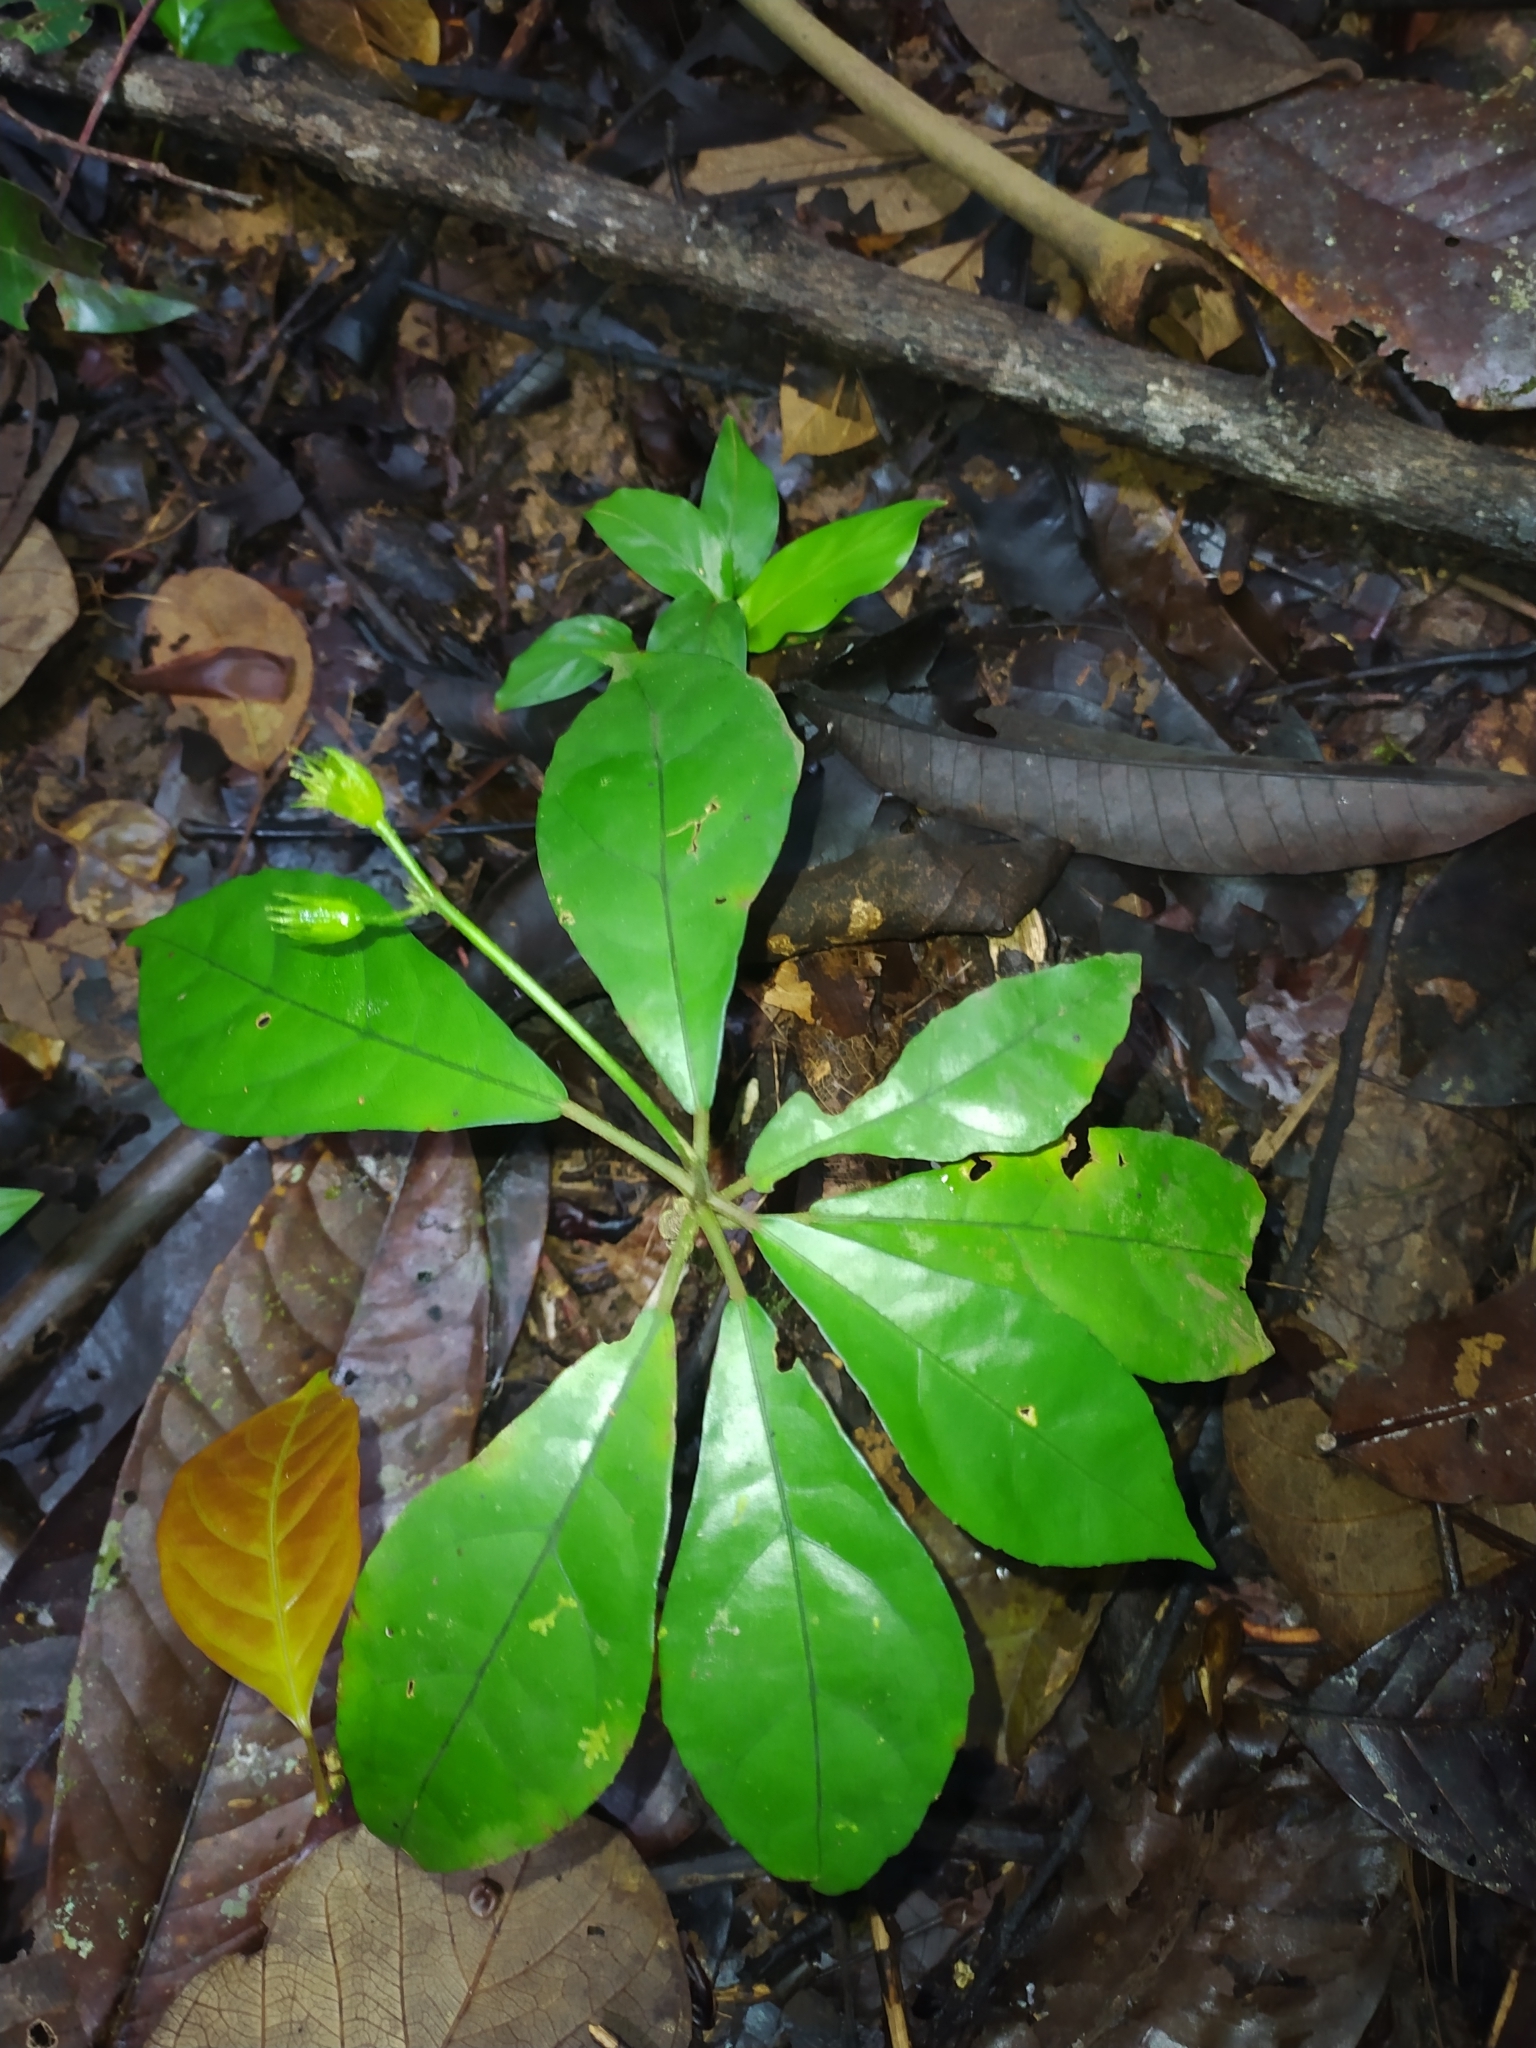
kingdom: Plantae
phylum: Tracheophyta
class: Magnoliopsida
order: Malvales
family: Malvaceae
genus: Pavonia
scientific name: Pavonia castaneifolia
